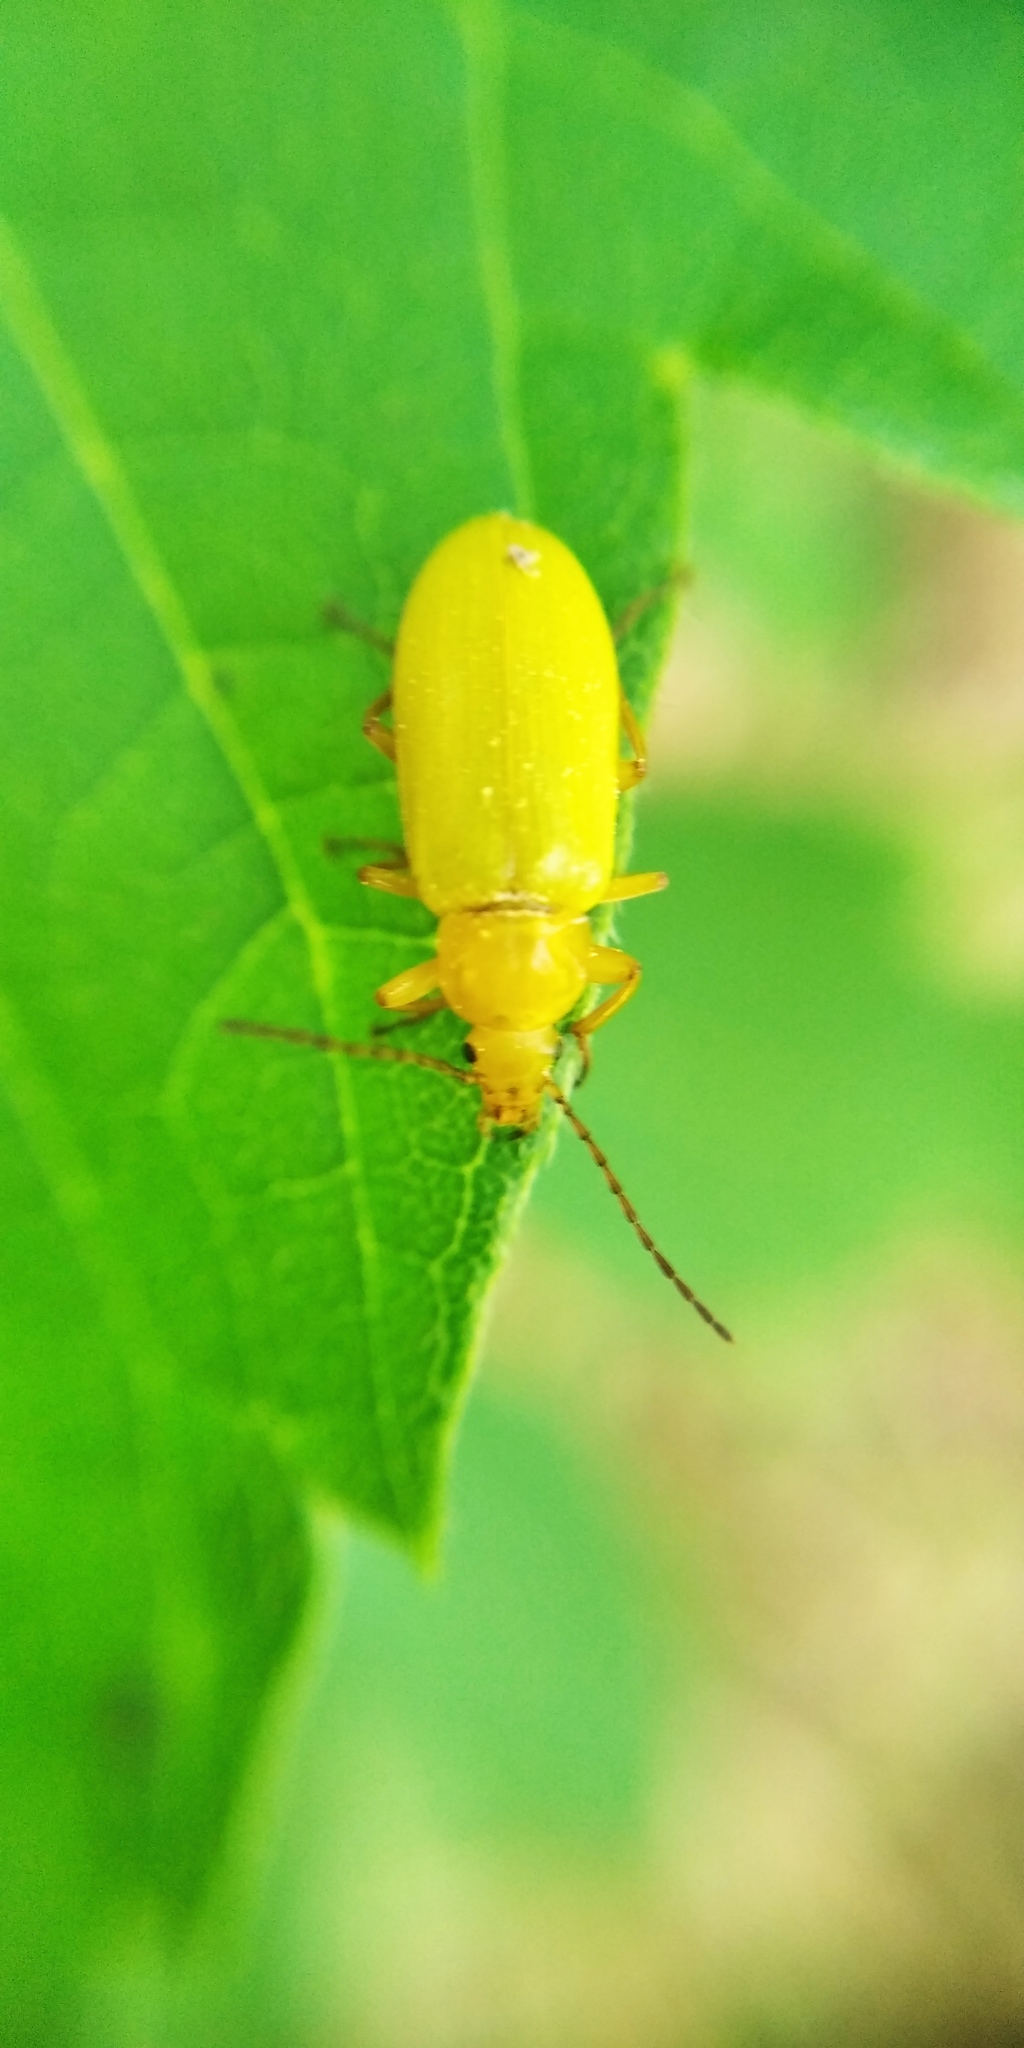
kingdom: Animalia
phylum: Arthropoda
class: Insecta
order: Coleoptera
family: Tenebrionidae
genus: Cteniopus
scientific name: Cteniopus sulphureus
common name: Sulphur beetle
